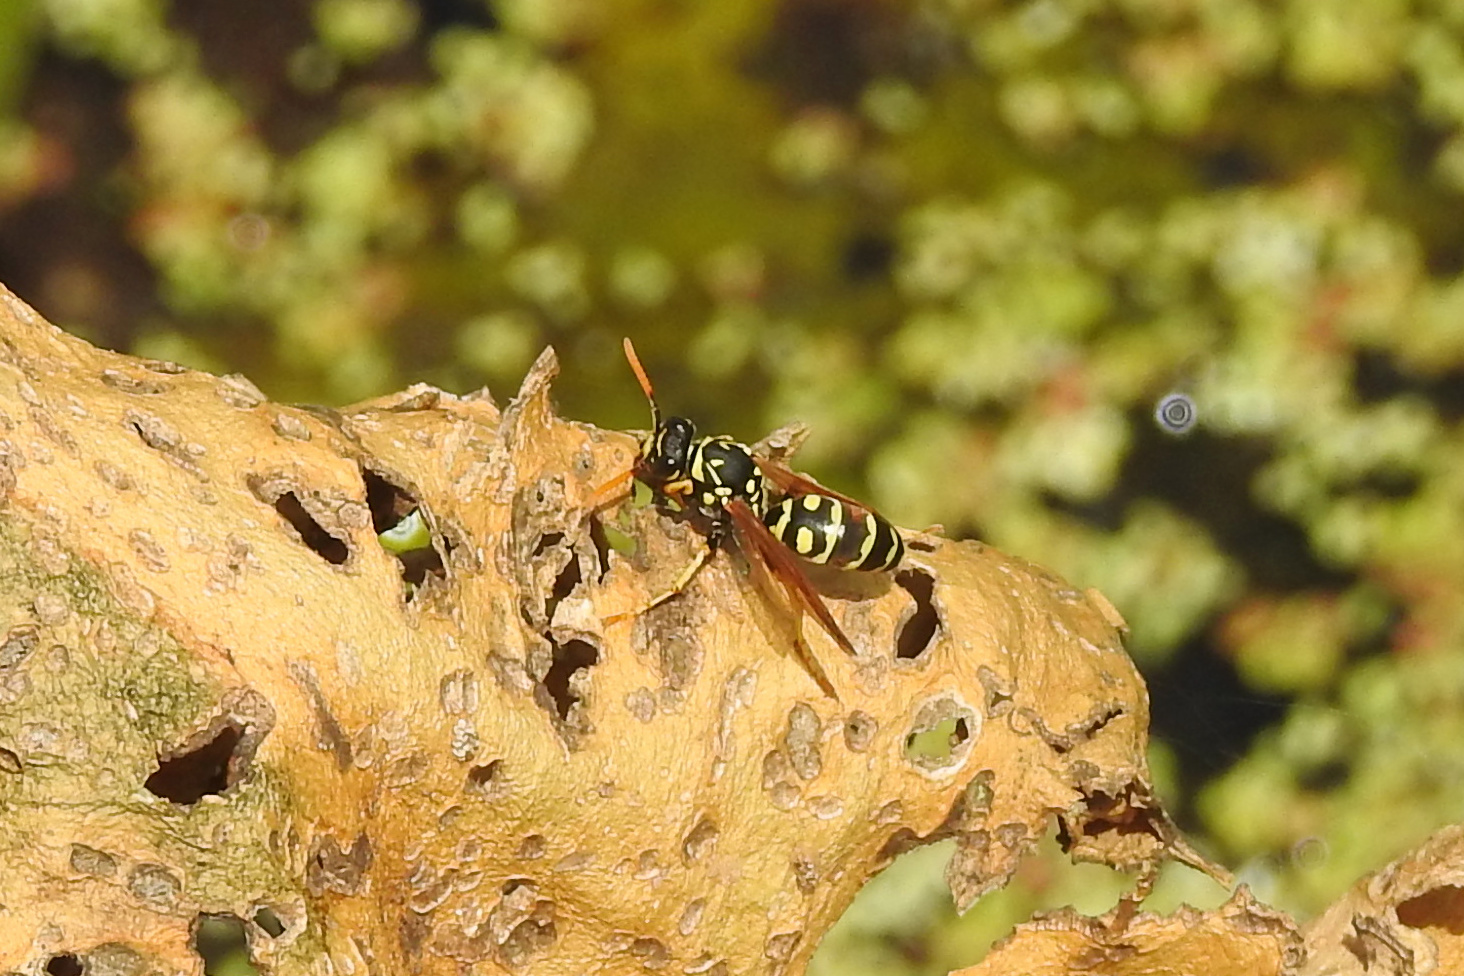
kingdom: Animalia
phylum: Arthropoda
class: Insecta
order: Hymenoptera
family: Eumenidae
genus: Polistes
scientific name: Polistes dominula
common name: Paper wasp
